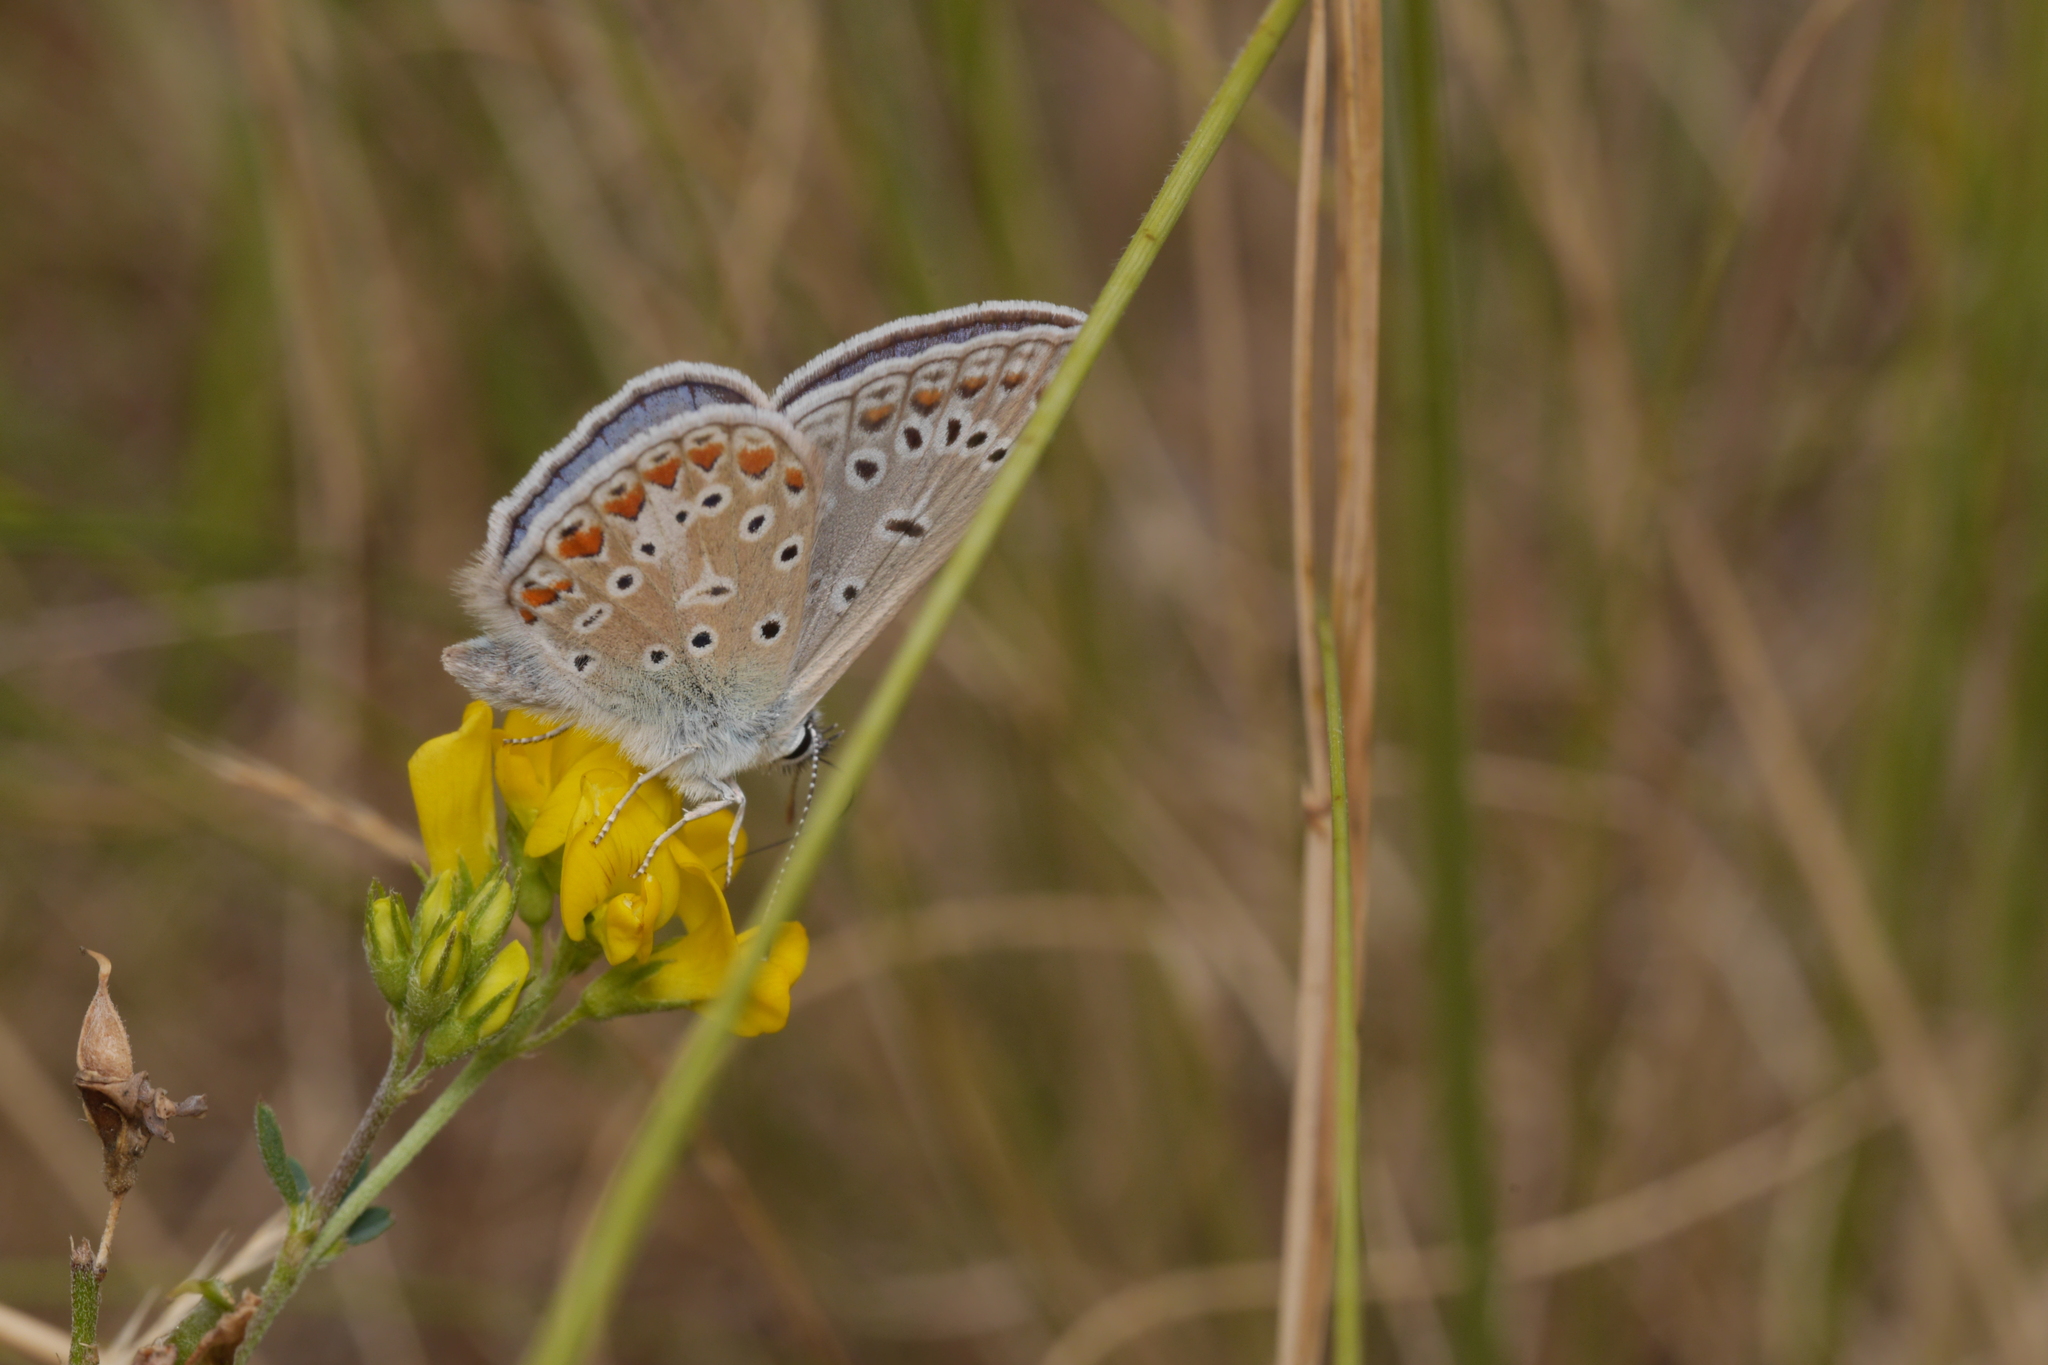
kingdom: Animalia
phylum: Arthropoda
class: Insecta
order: Lepidoptera
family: Lycaenidae
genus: Polyommatus
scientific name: Polyommatus icarus
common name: Common blue
